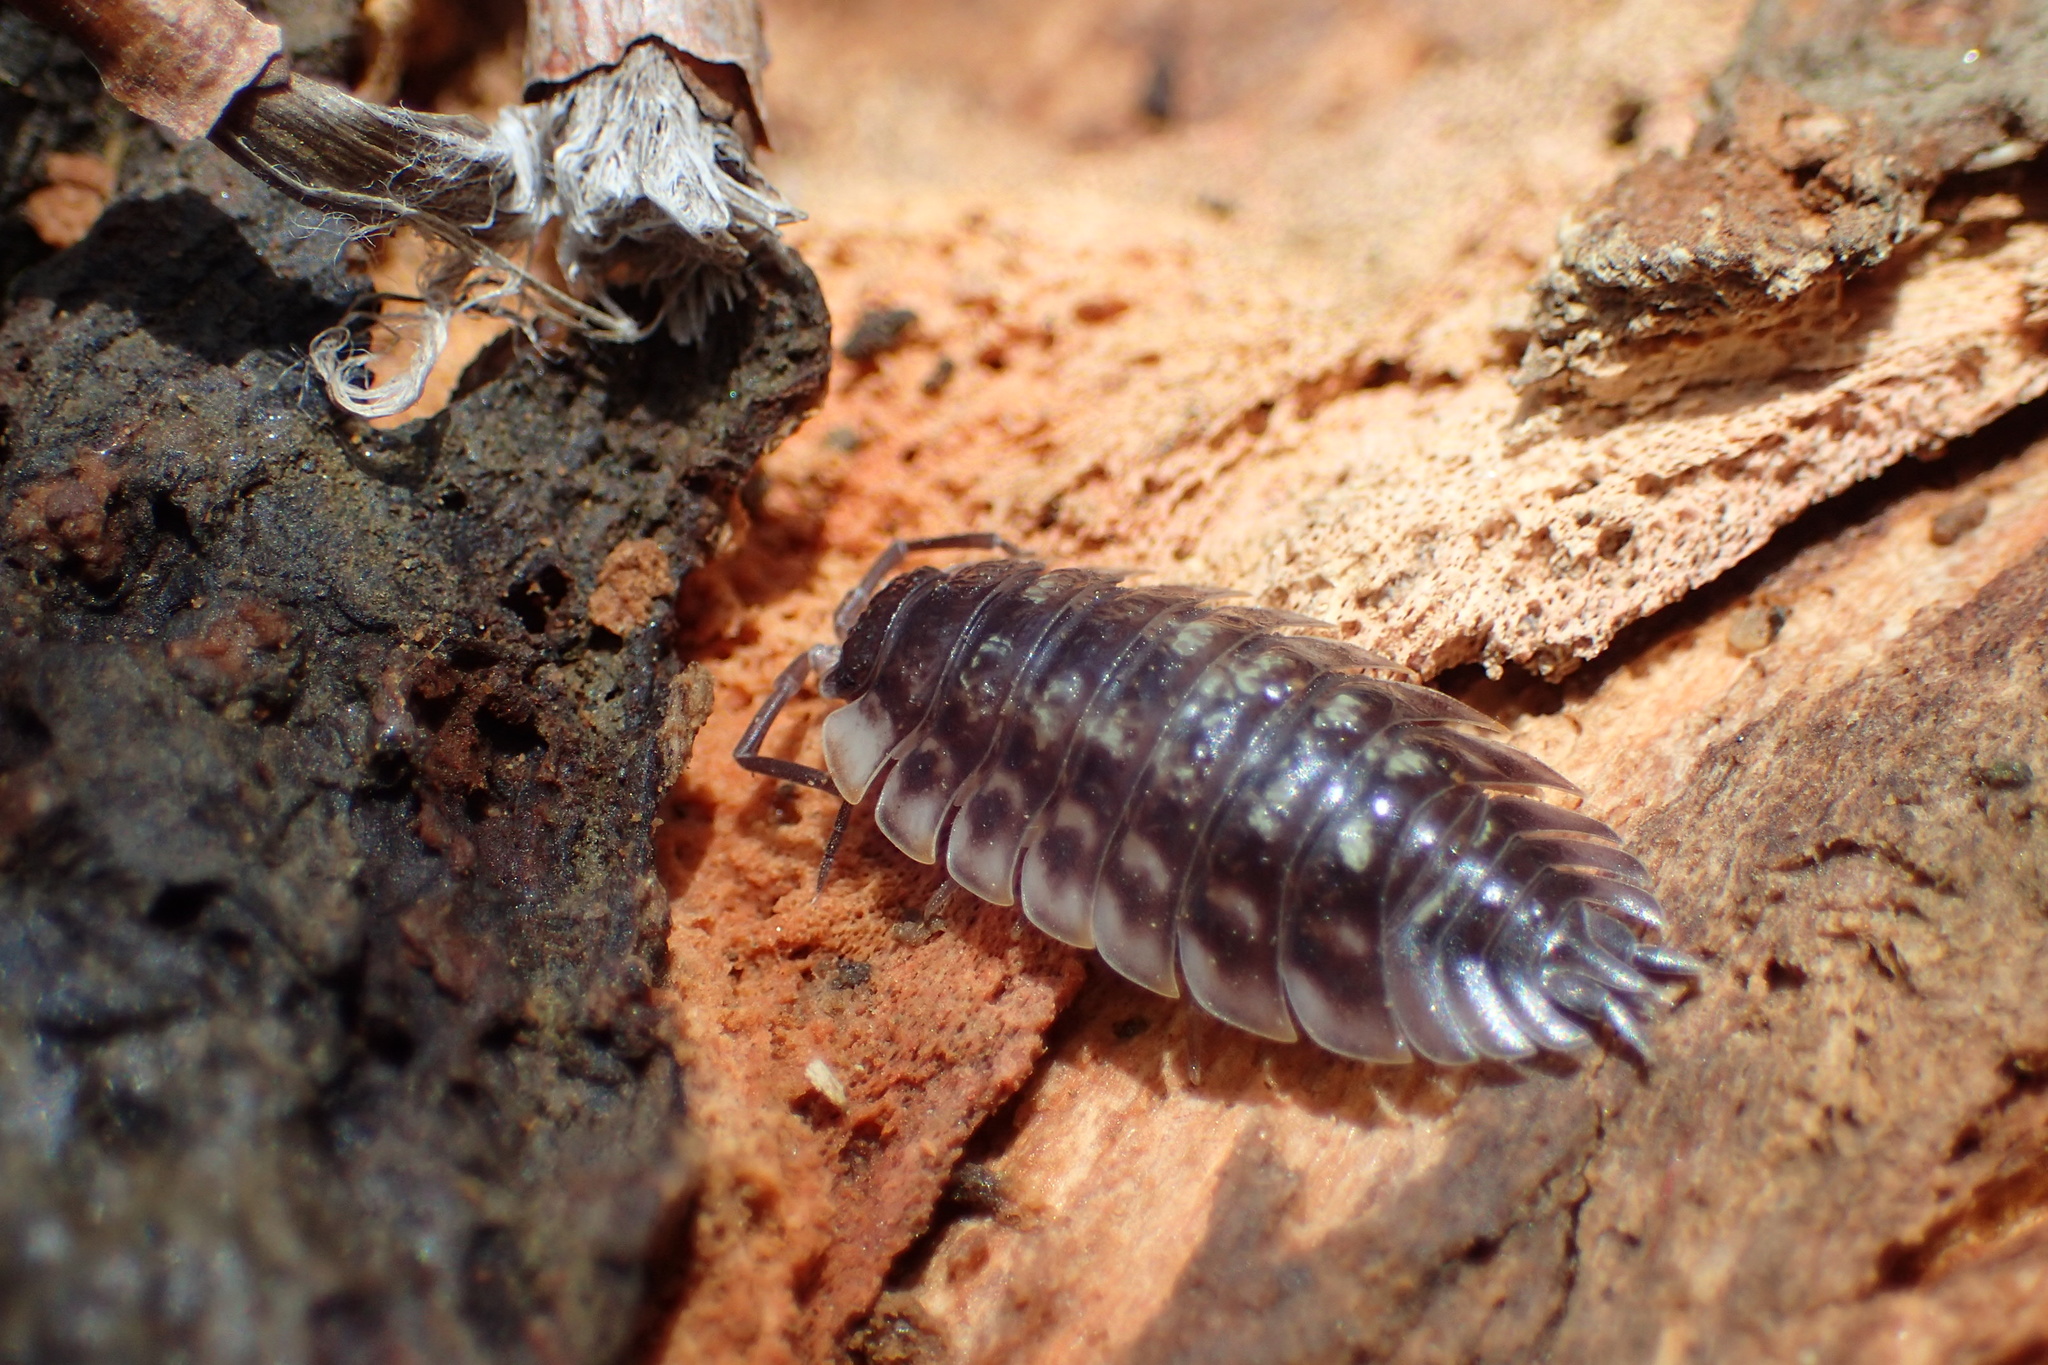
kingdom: Animalia
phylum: Arthropoda
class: Malacostraca
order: Isopoda
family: Oniscidae
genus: Oniscus
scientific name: Oniscus asellus
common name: Common shiny woodlouse
